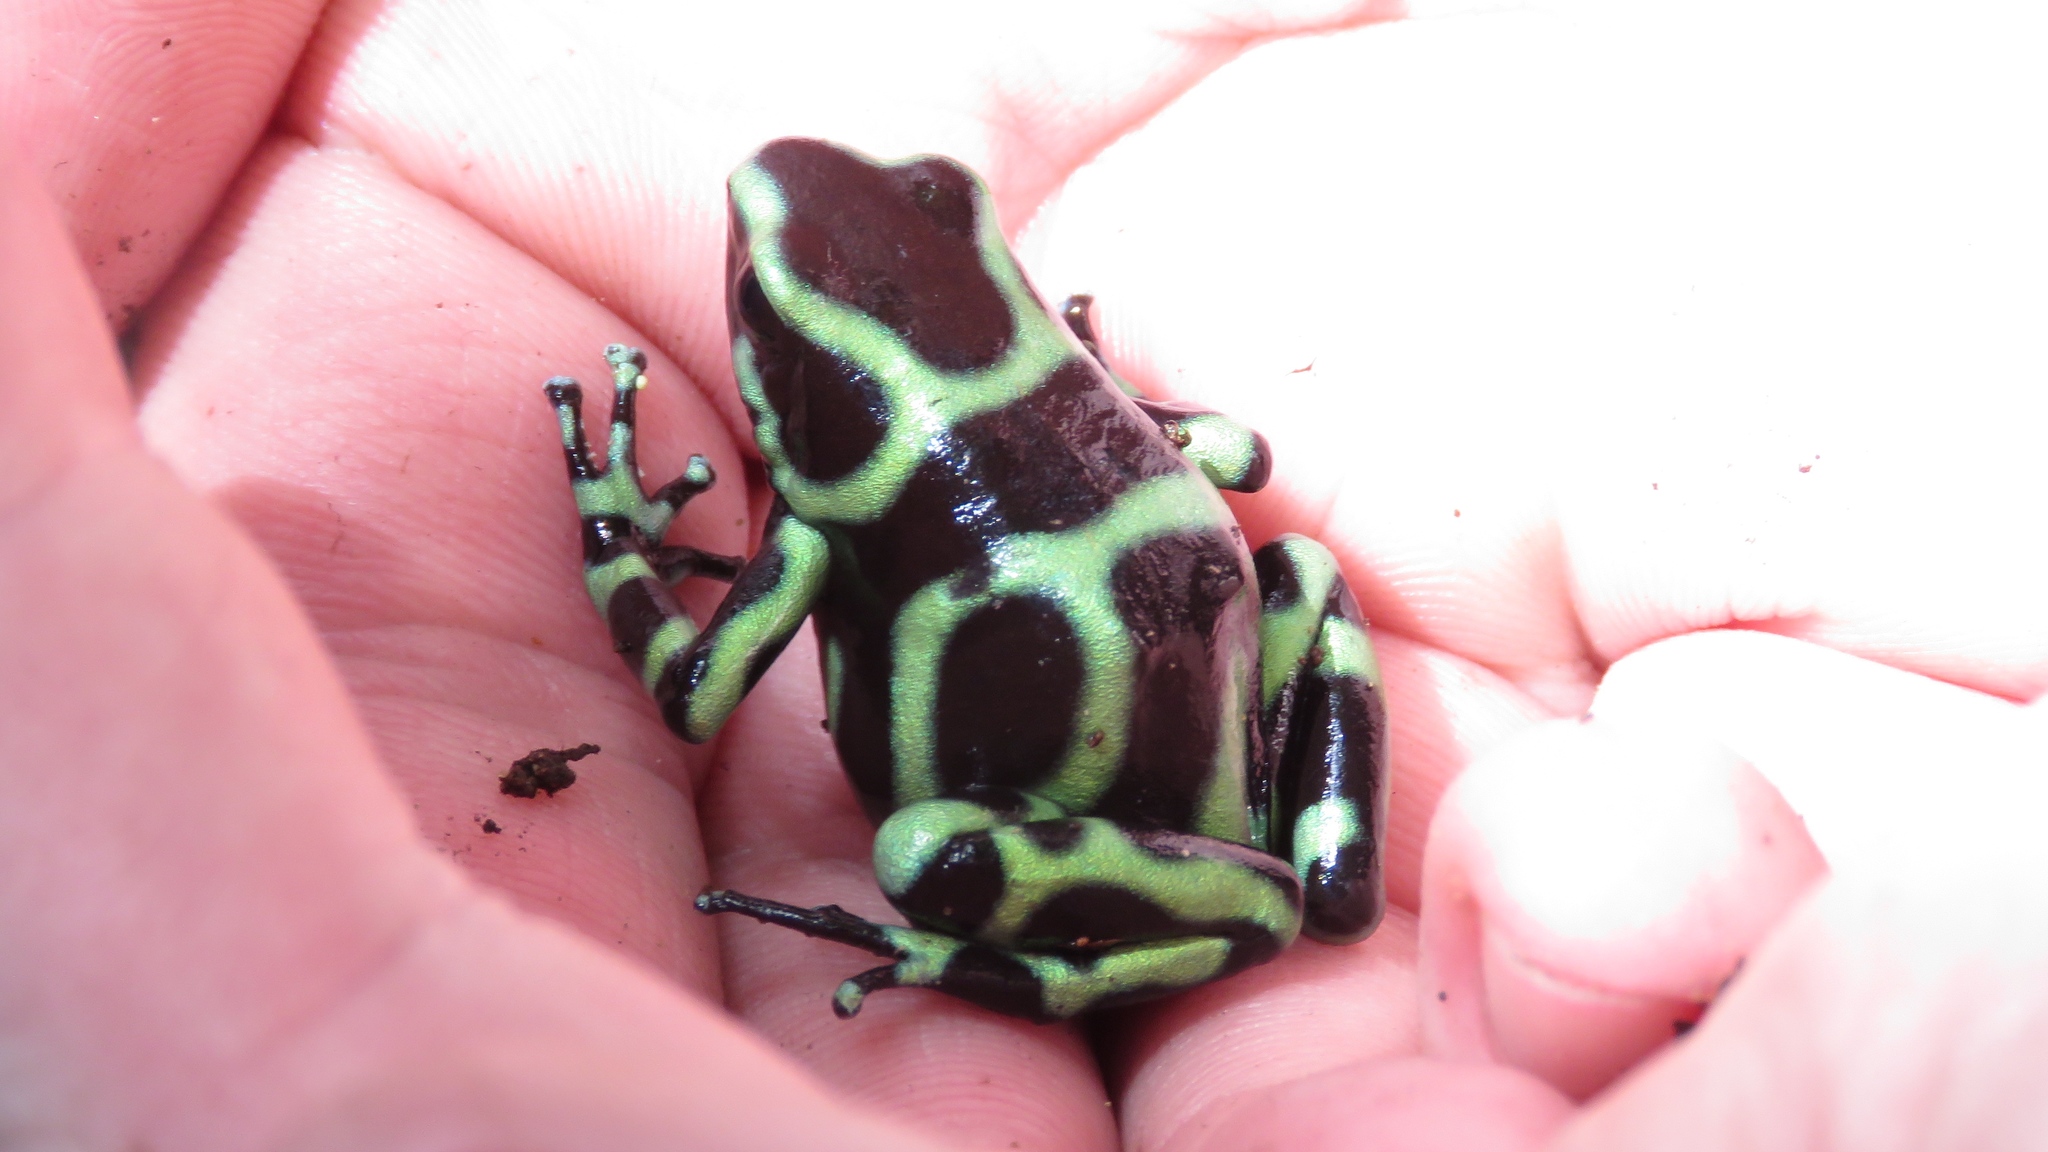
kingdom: Animalia
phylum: Chordata
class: Amphibia
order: Anura
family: Dendrobatidae
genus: Dendrobates
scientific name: Dendrobates auratus
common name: Green and black poison dart frog
